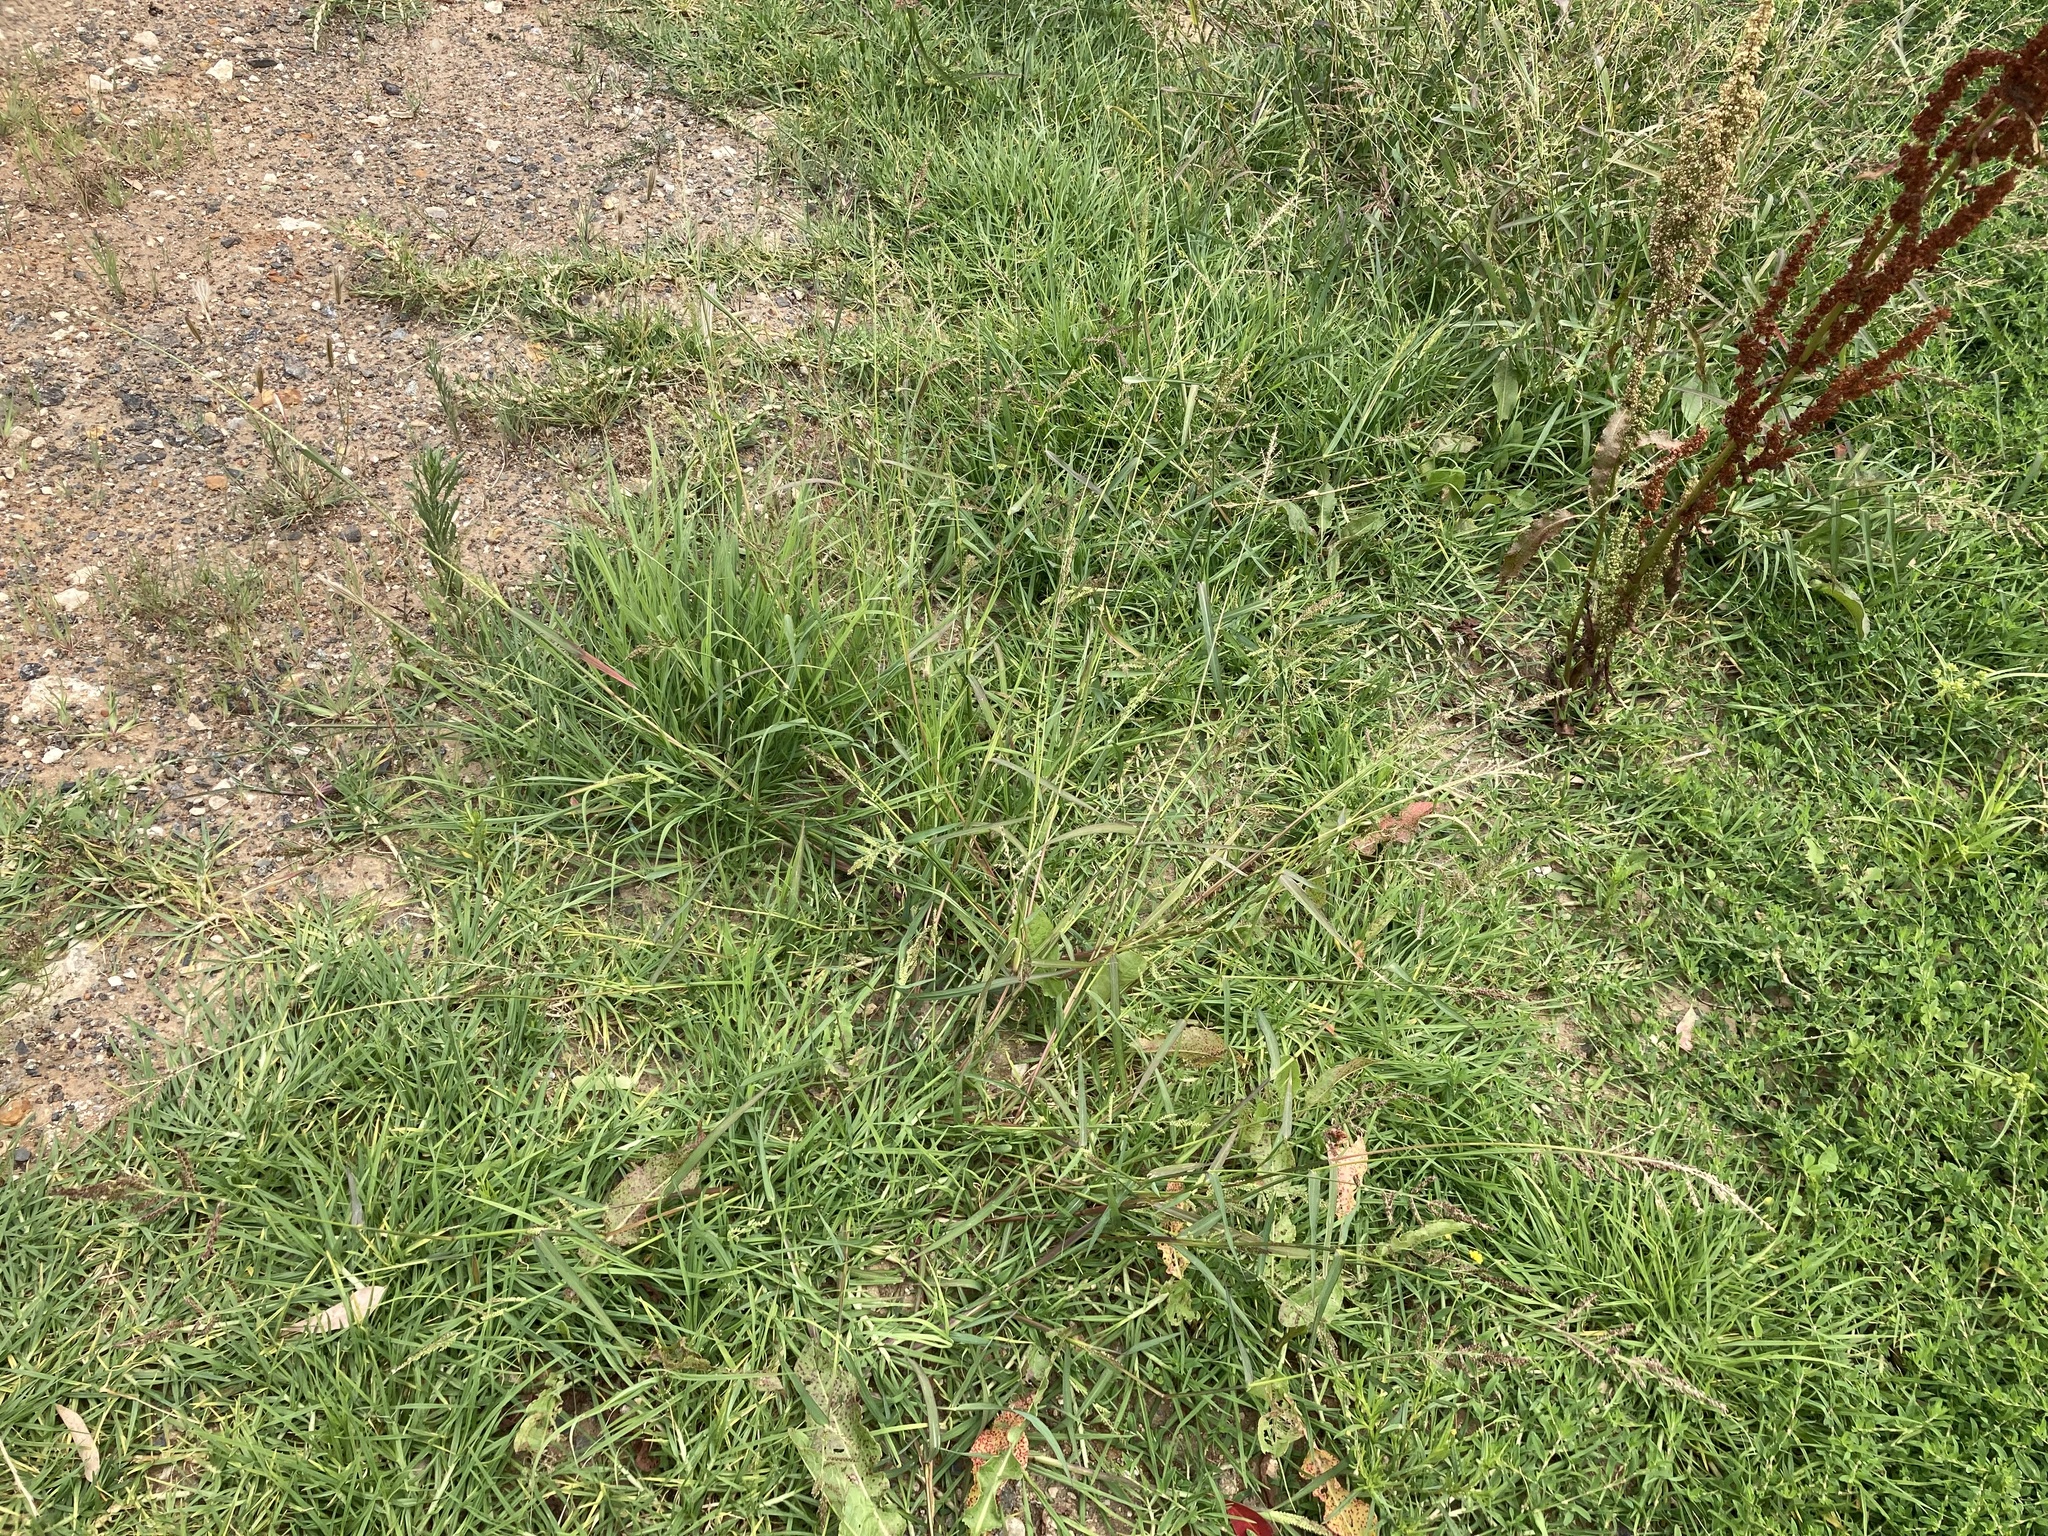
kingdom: Plantae
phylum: Tracheophyta
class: Liliopsida
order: Poales
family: Poaceae
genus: Echinochloa
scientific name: Echinochloa crus-galli
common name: Cockspur
